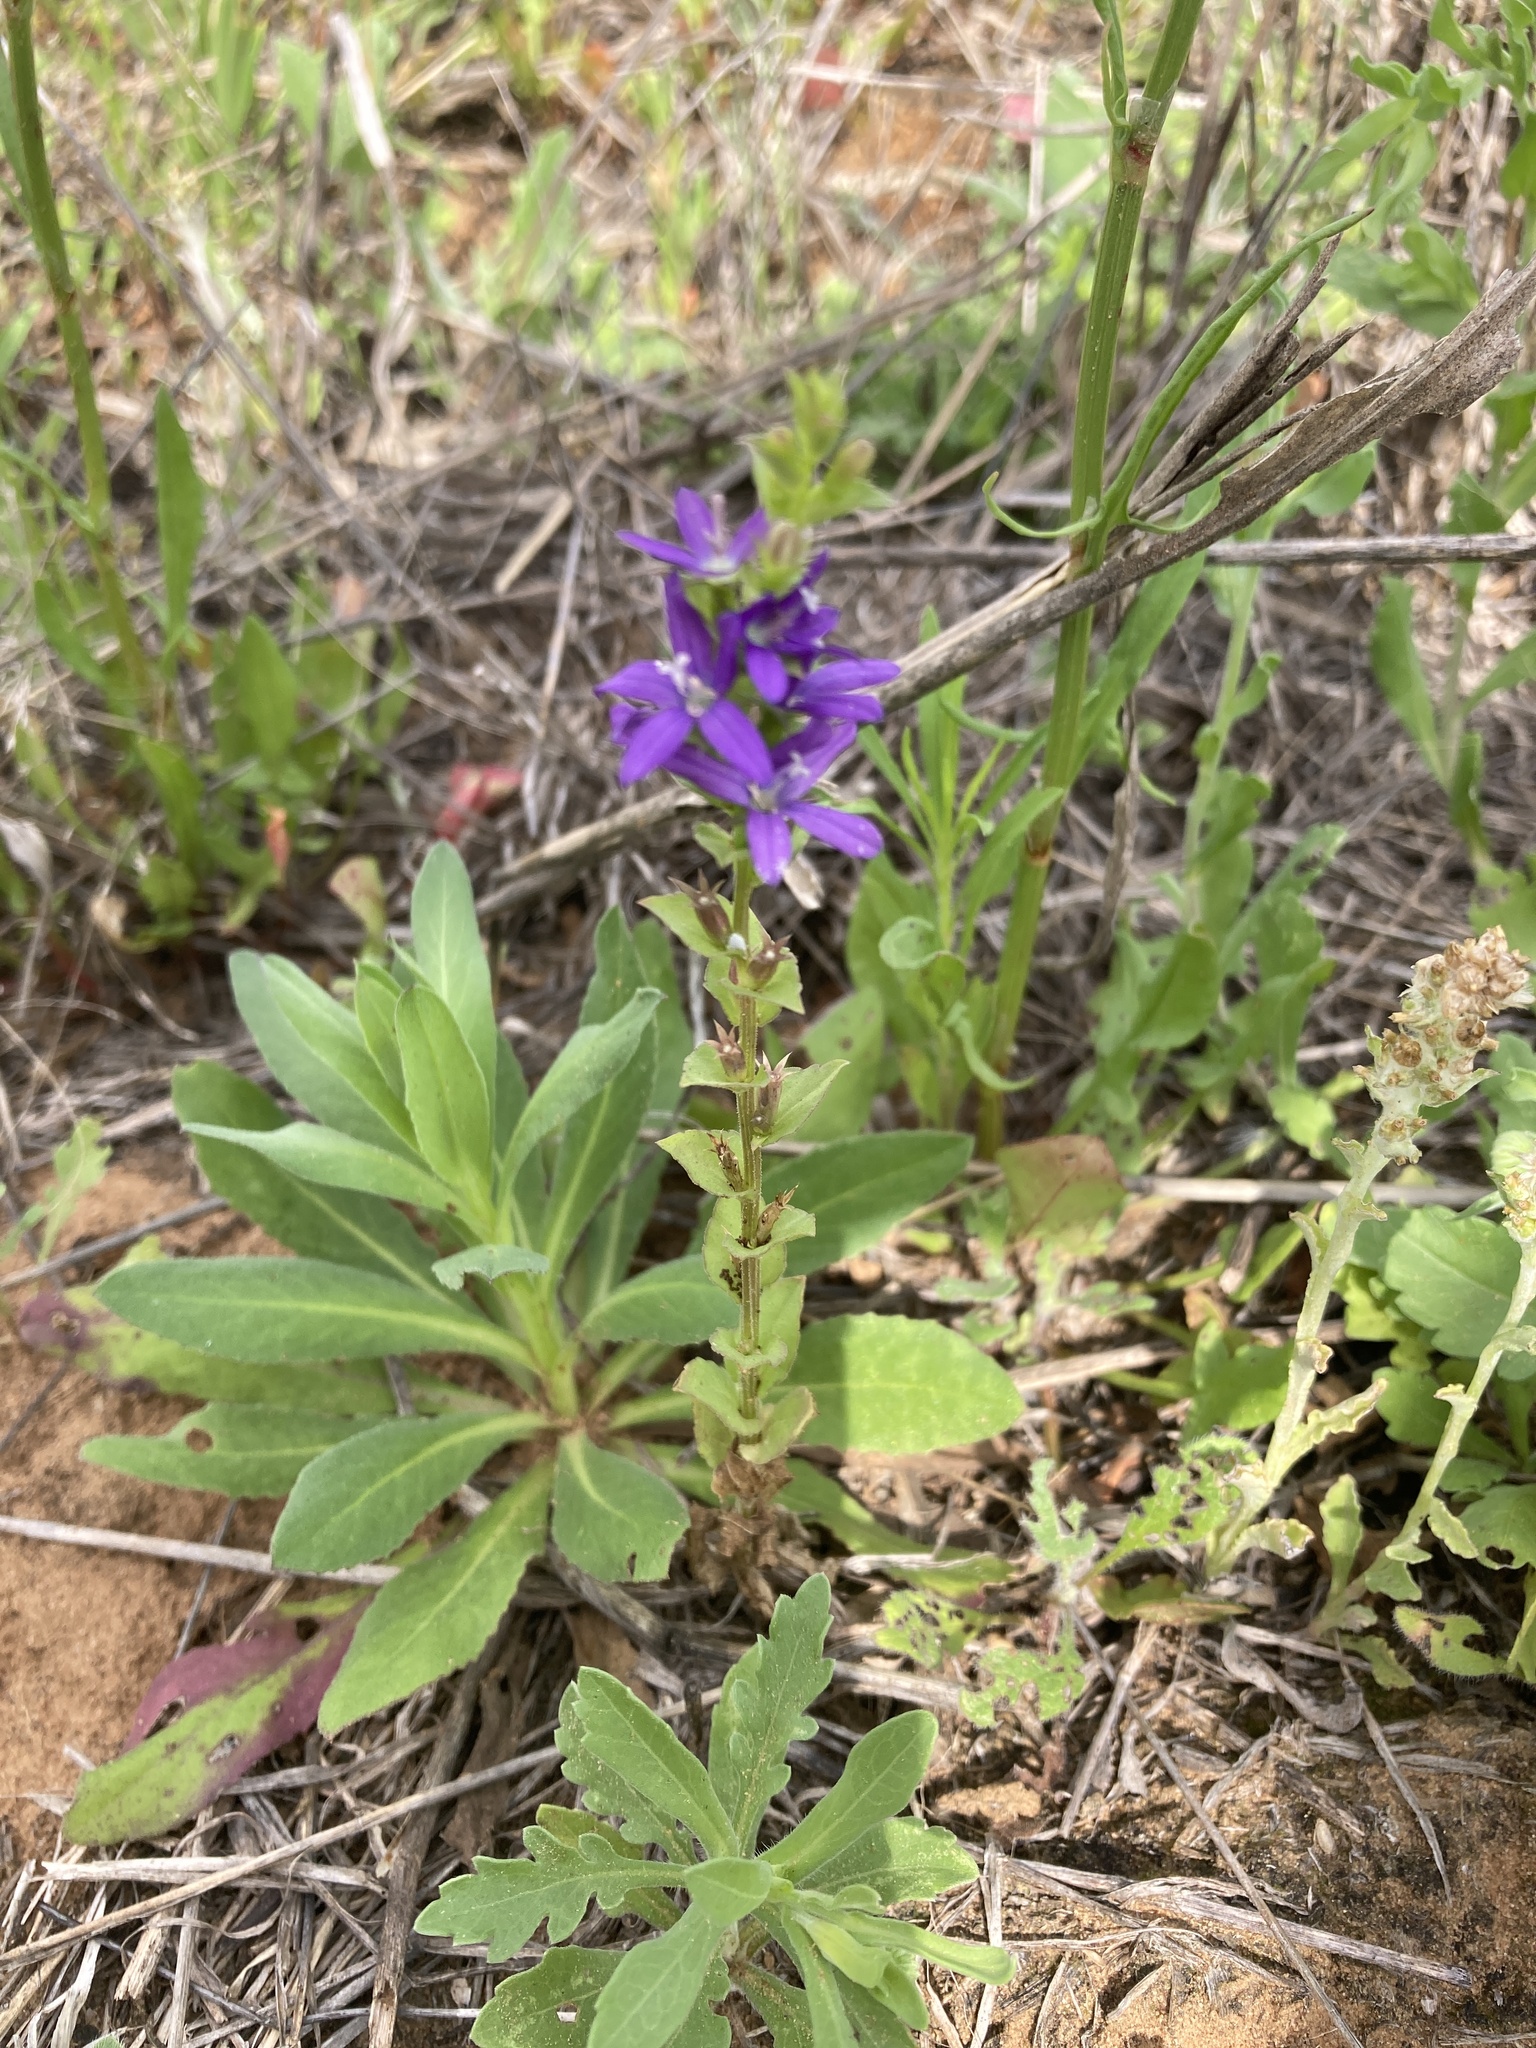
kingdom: Plantae
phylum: Tracheophyta
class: Magnoliopsida
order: Asterales
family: Campanulaceae
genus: Triodanis
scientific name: Triodanis perfoliata
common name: Clasping venus' looking-glass
